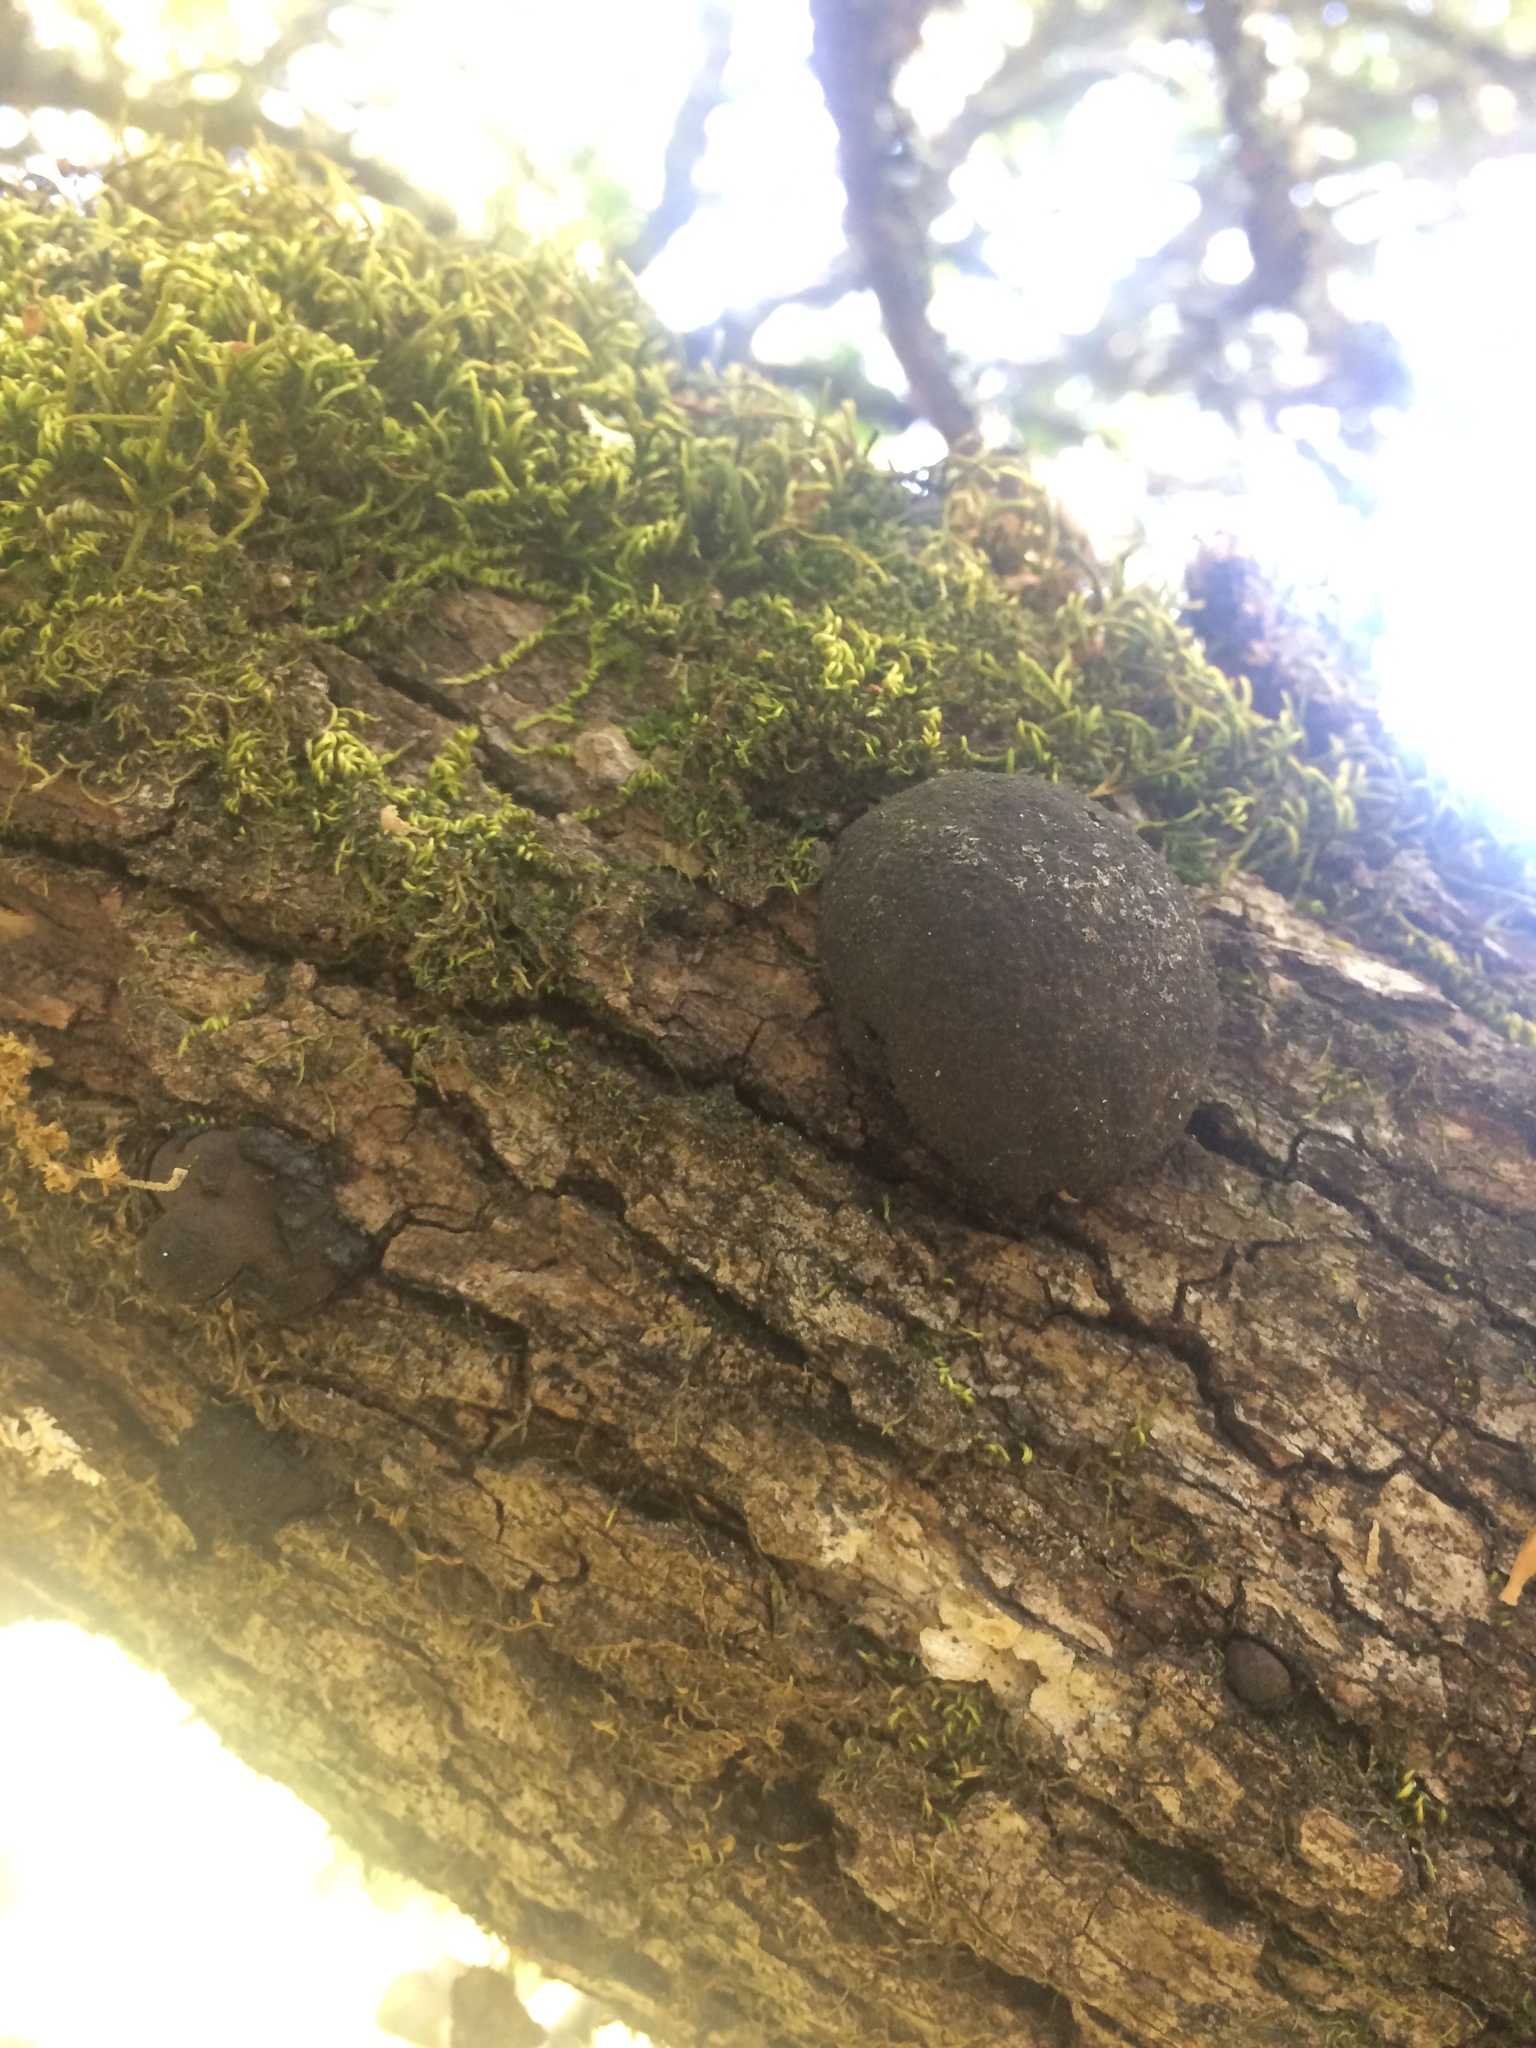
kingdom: Fungi
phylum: Ascomycota
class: Sordariomycetes
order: Xylariales
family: Hypoxylaceae
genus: Annulohypoxylon
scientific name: Annulohypoxylon thouarsianum
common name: Cramp balls
